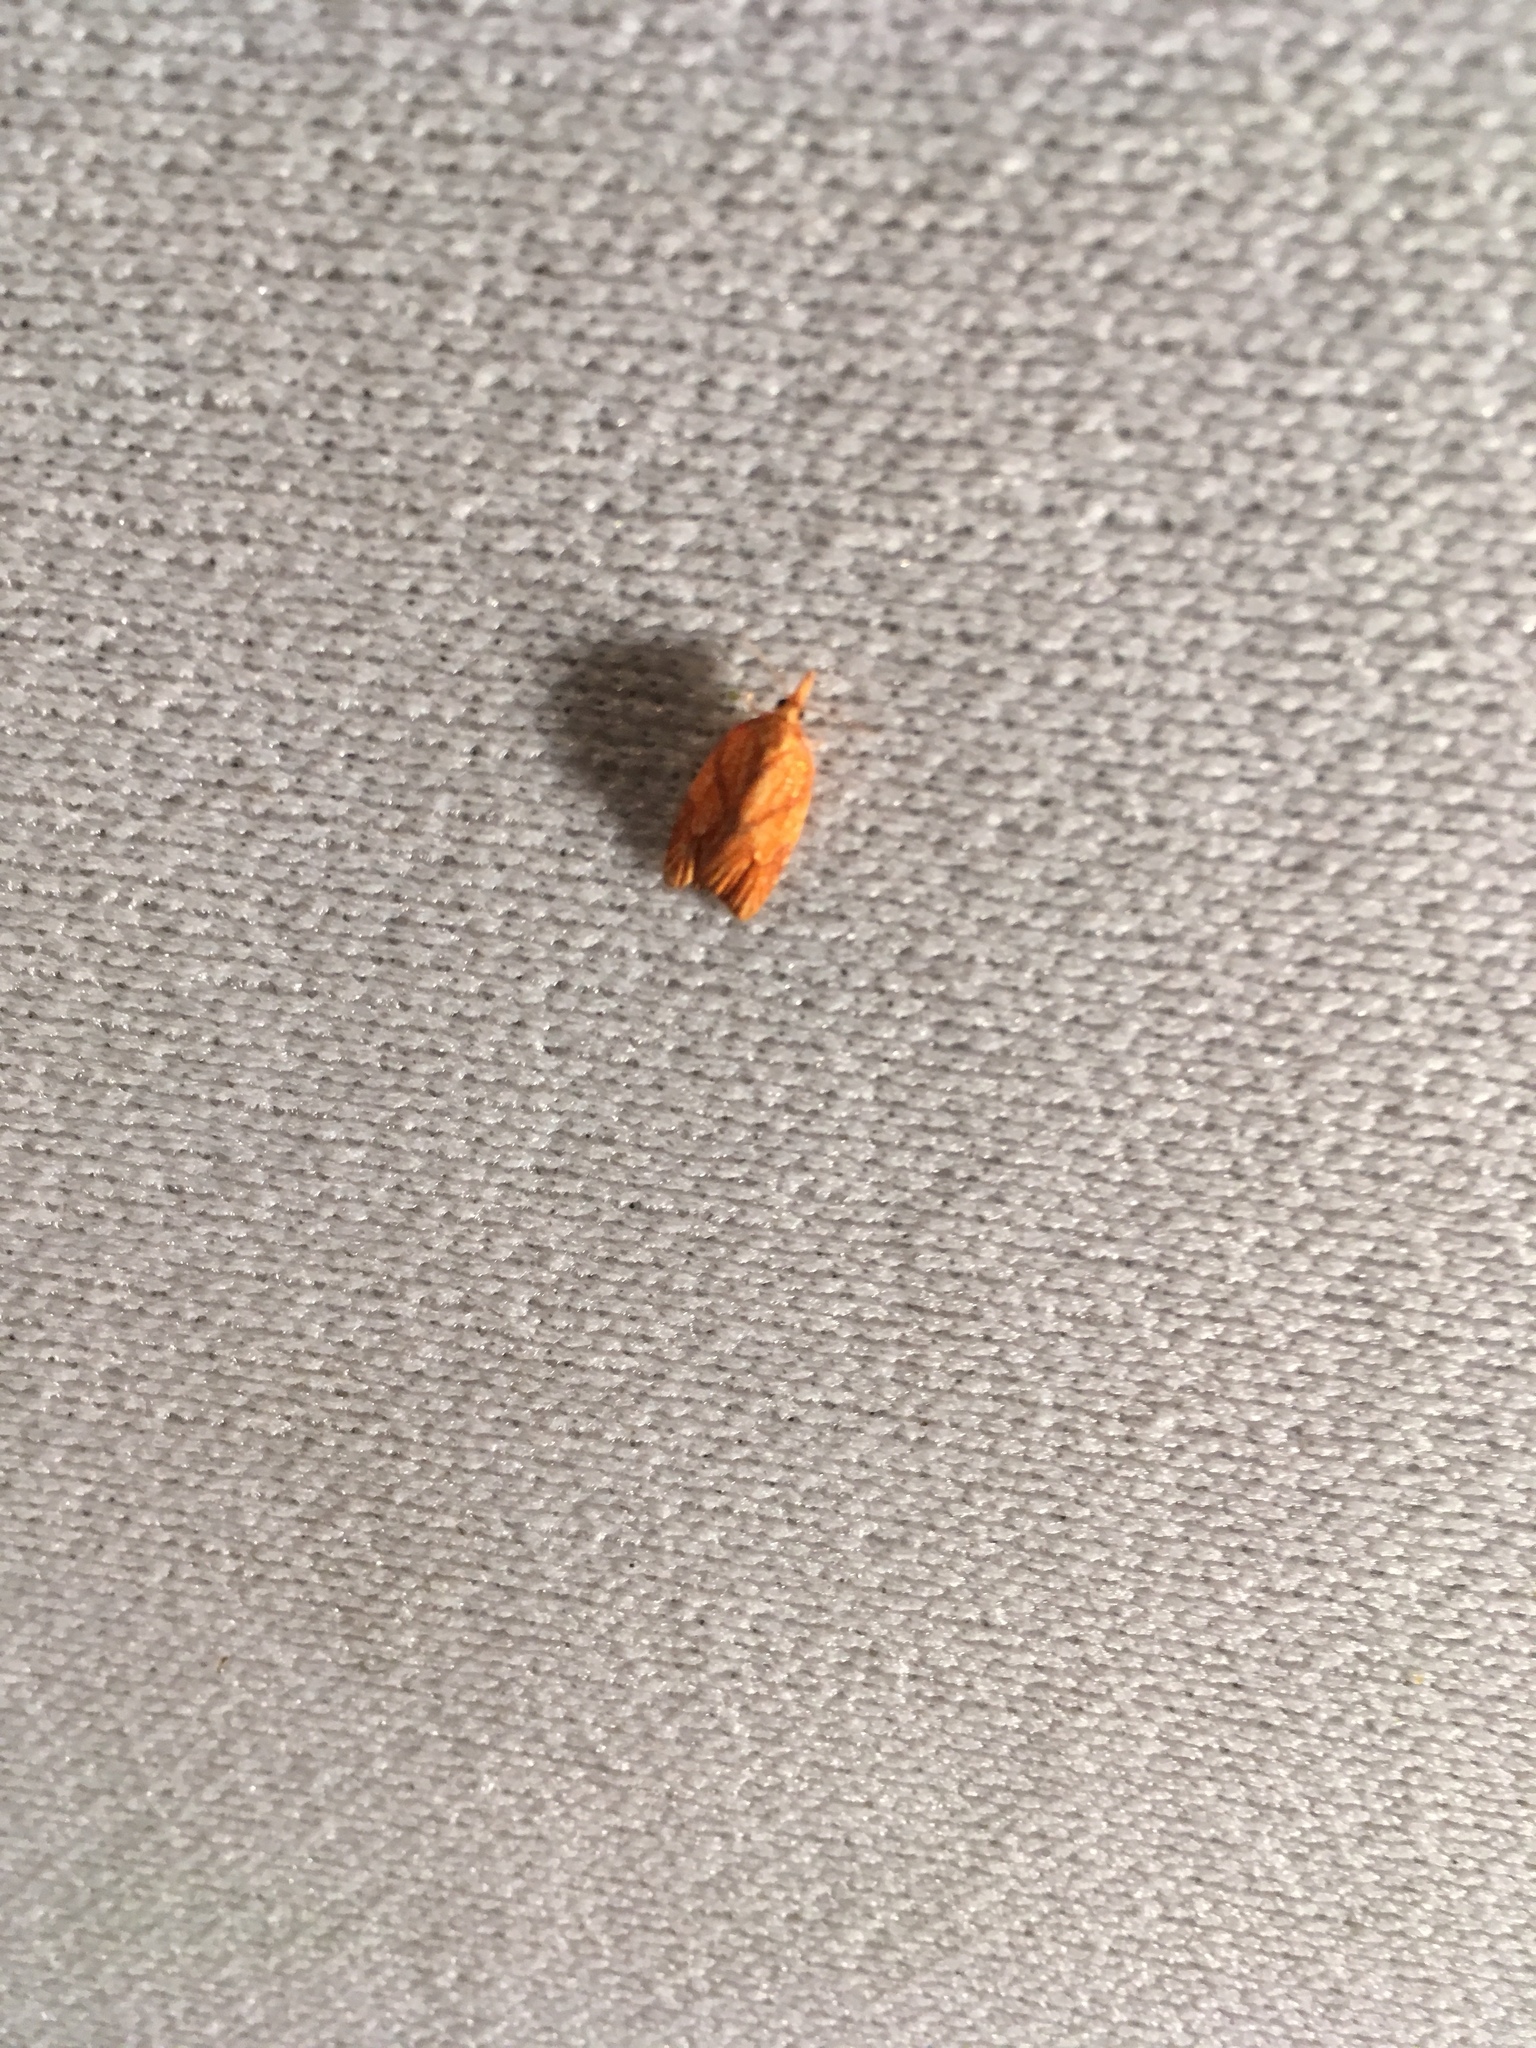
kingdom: Animalia
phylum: Arthropoda
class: Insecta
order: Lepidoptera
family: Tortricidae
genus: Cenopis
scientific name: Cenopis reticulatana
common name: Reticulated fruitworm moth
